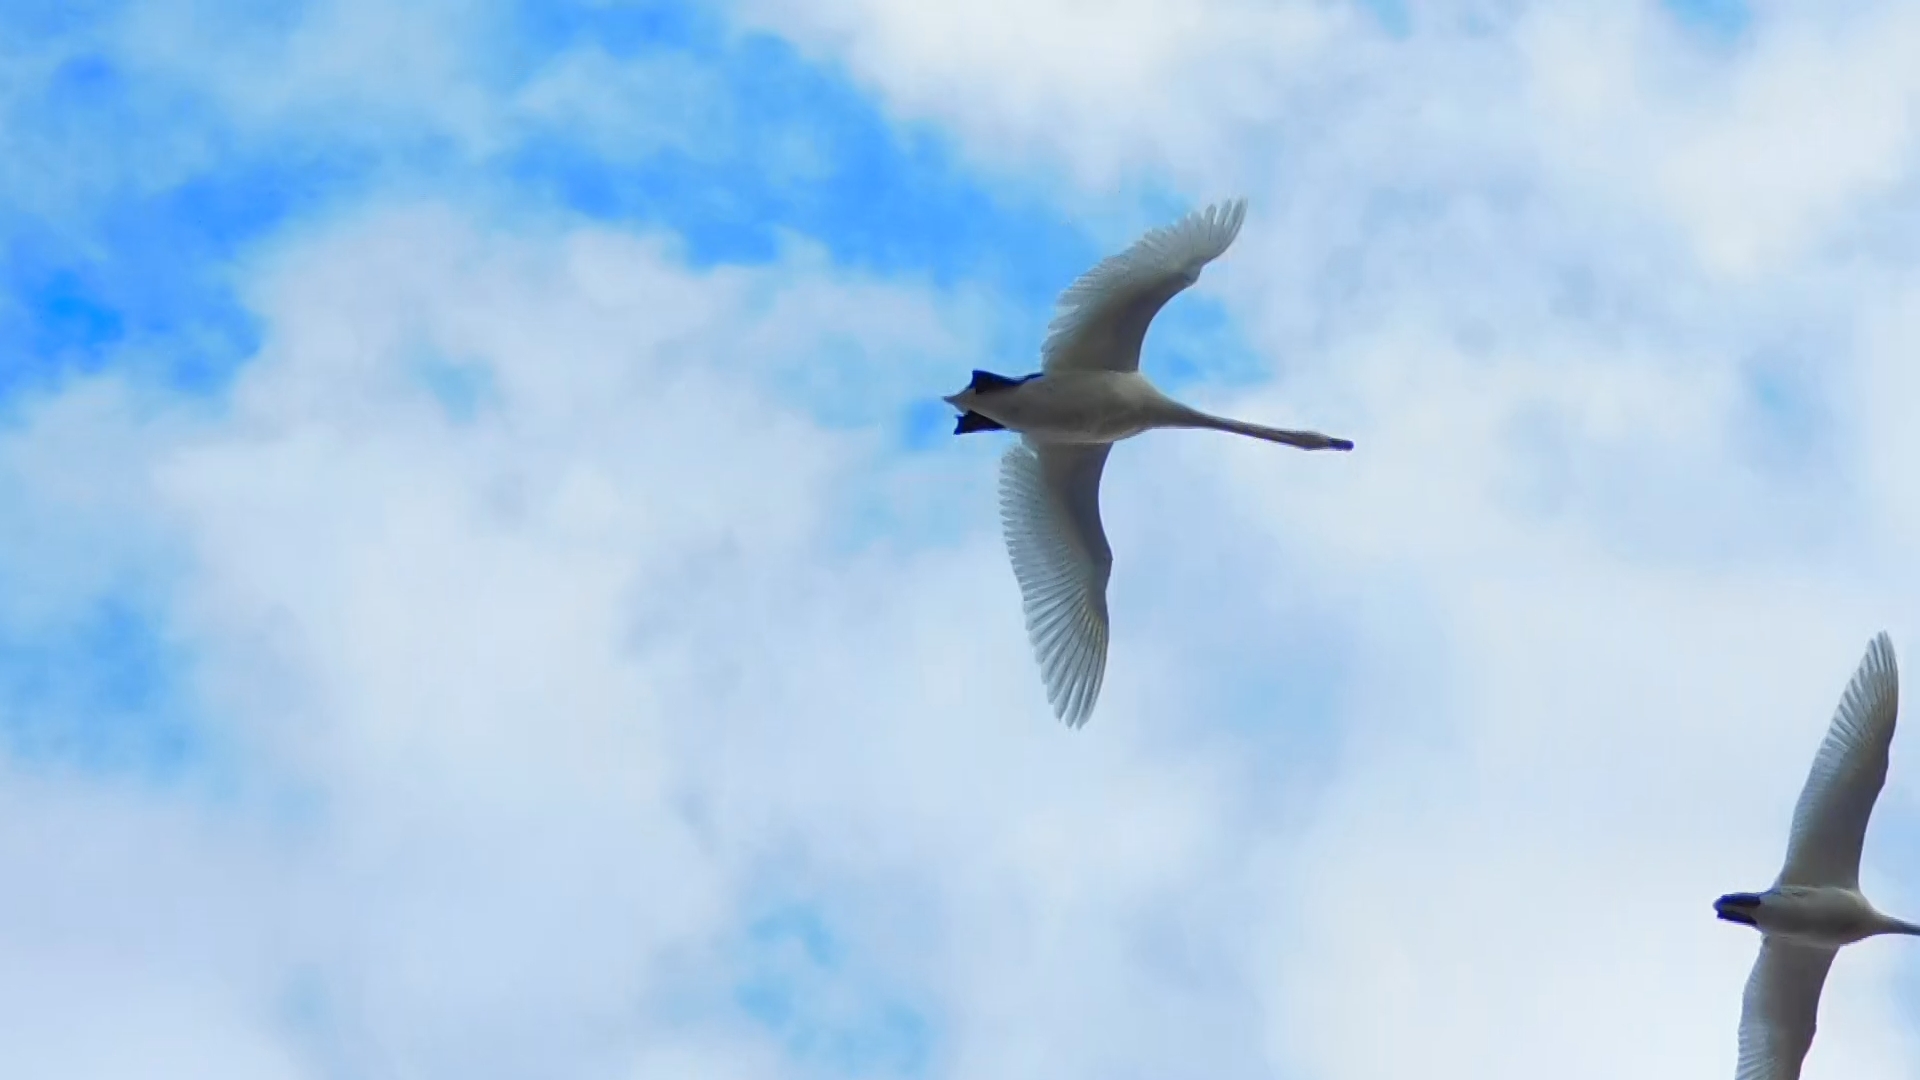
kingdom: Animalia
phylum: Chordata
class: Aves
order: Anseriformes
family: Anatidae
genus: Cygnus
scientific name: Cygnus cygnus
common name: Whooper swan
